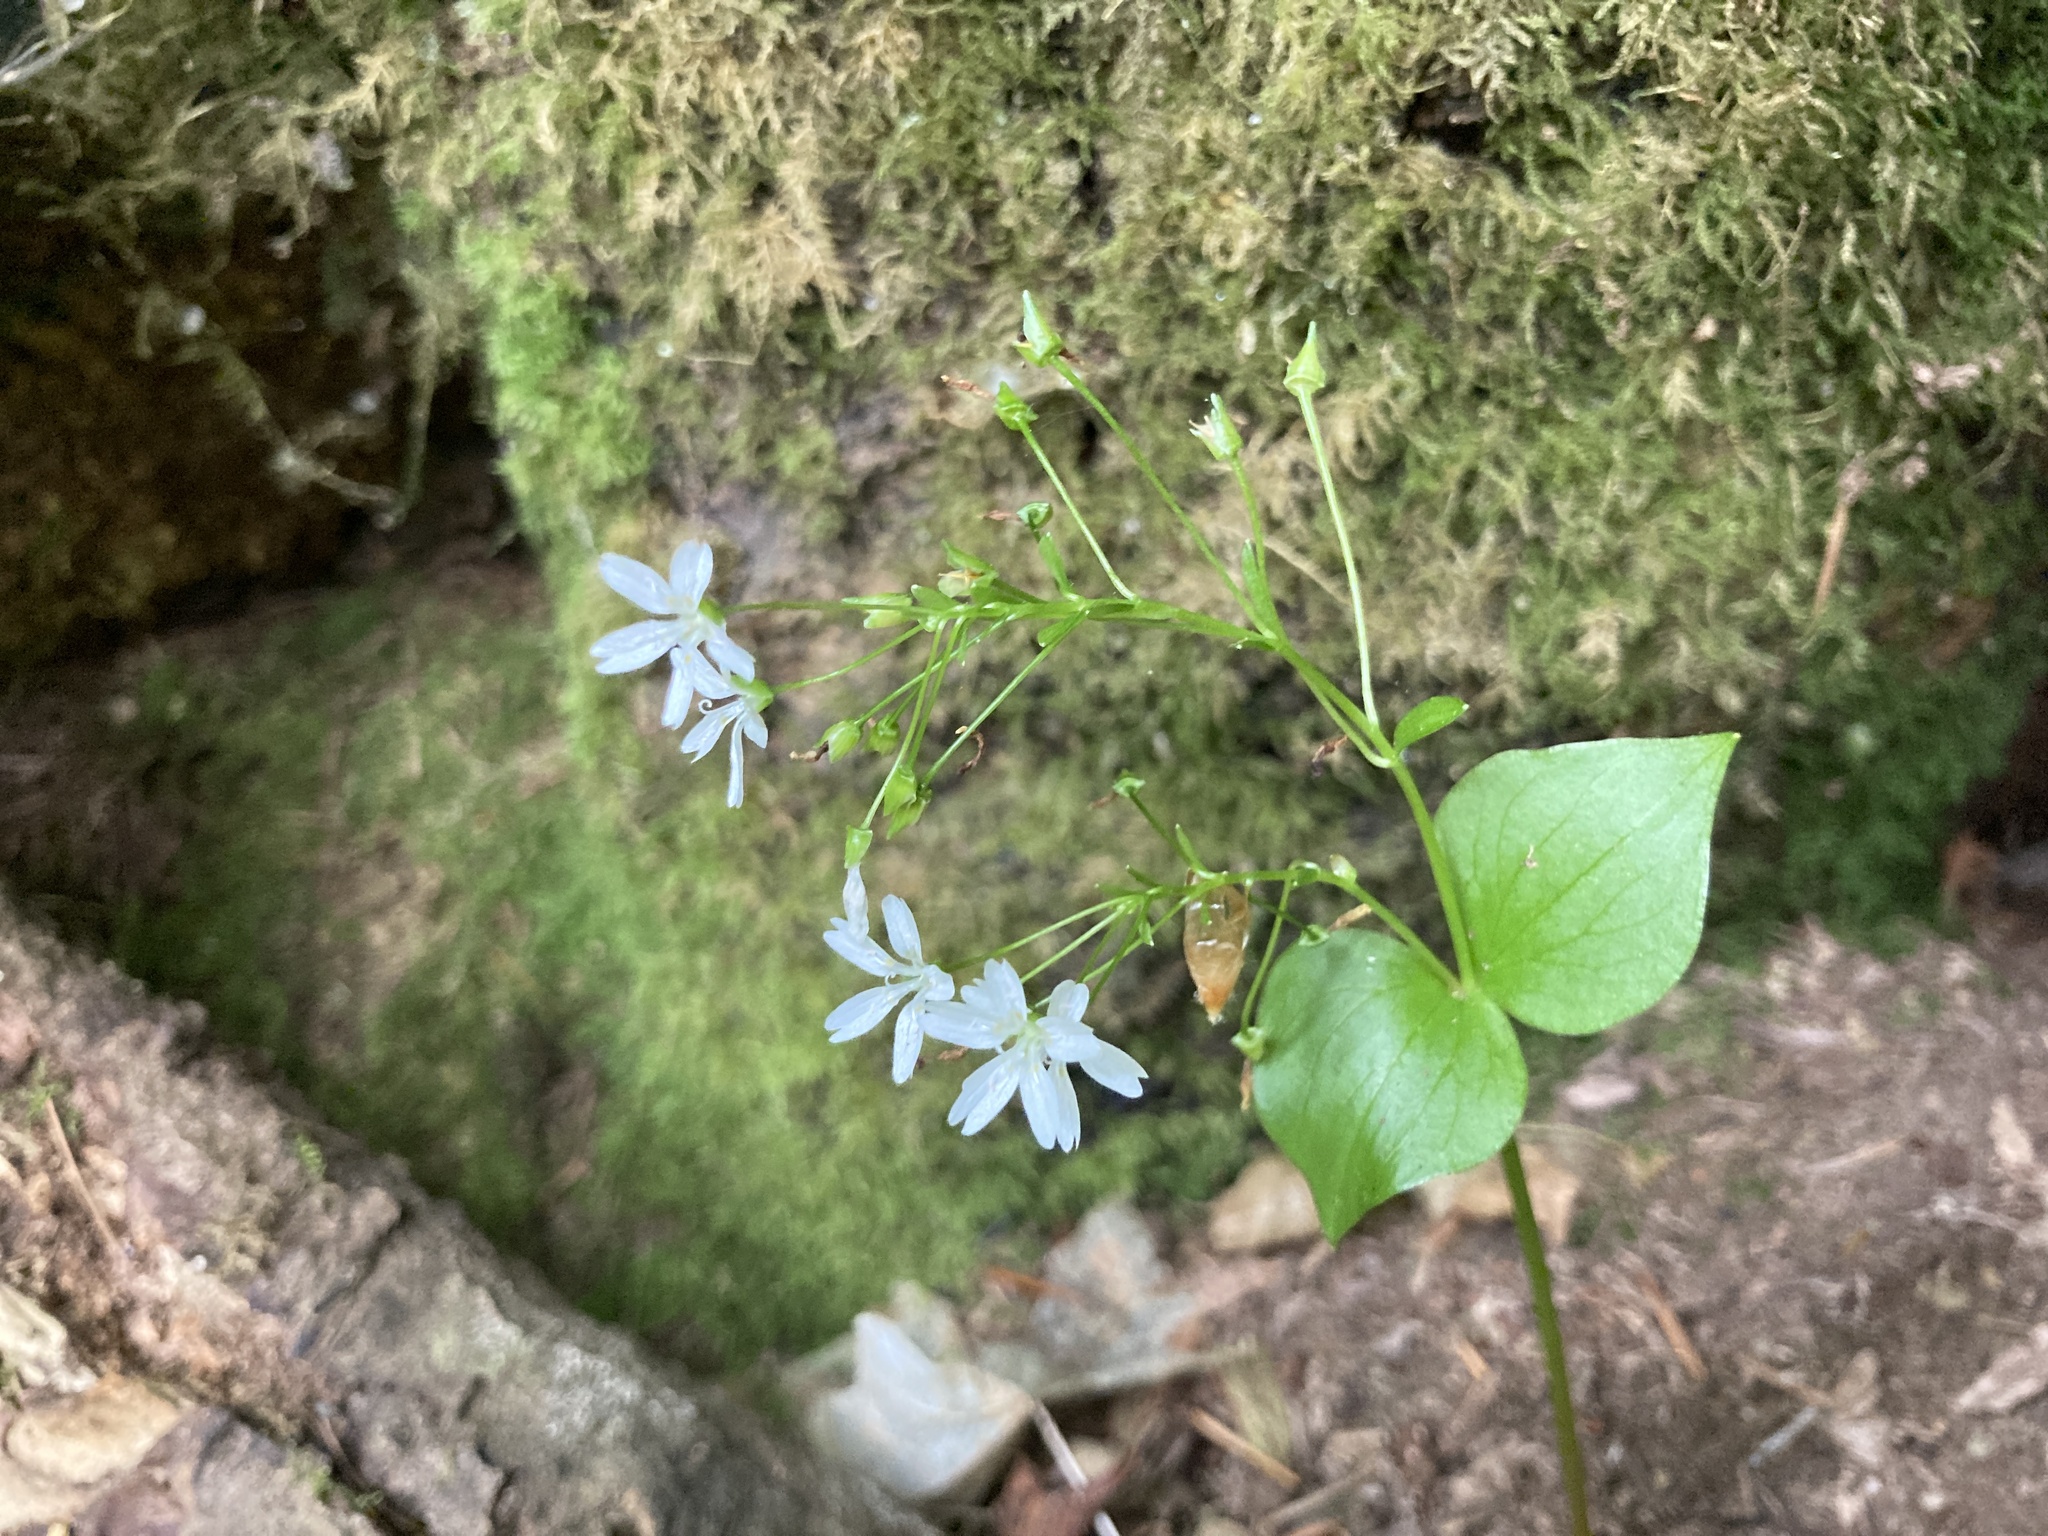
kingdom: Plantae
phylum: Tracheophyta
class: Magnoliopsida
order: Caryophyllales
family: Montiaceae
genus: Claytonia
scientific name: Claytonia sibirica
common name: Pink purslane
